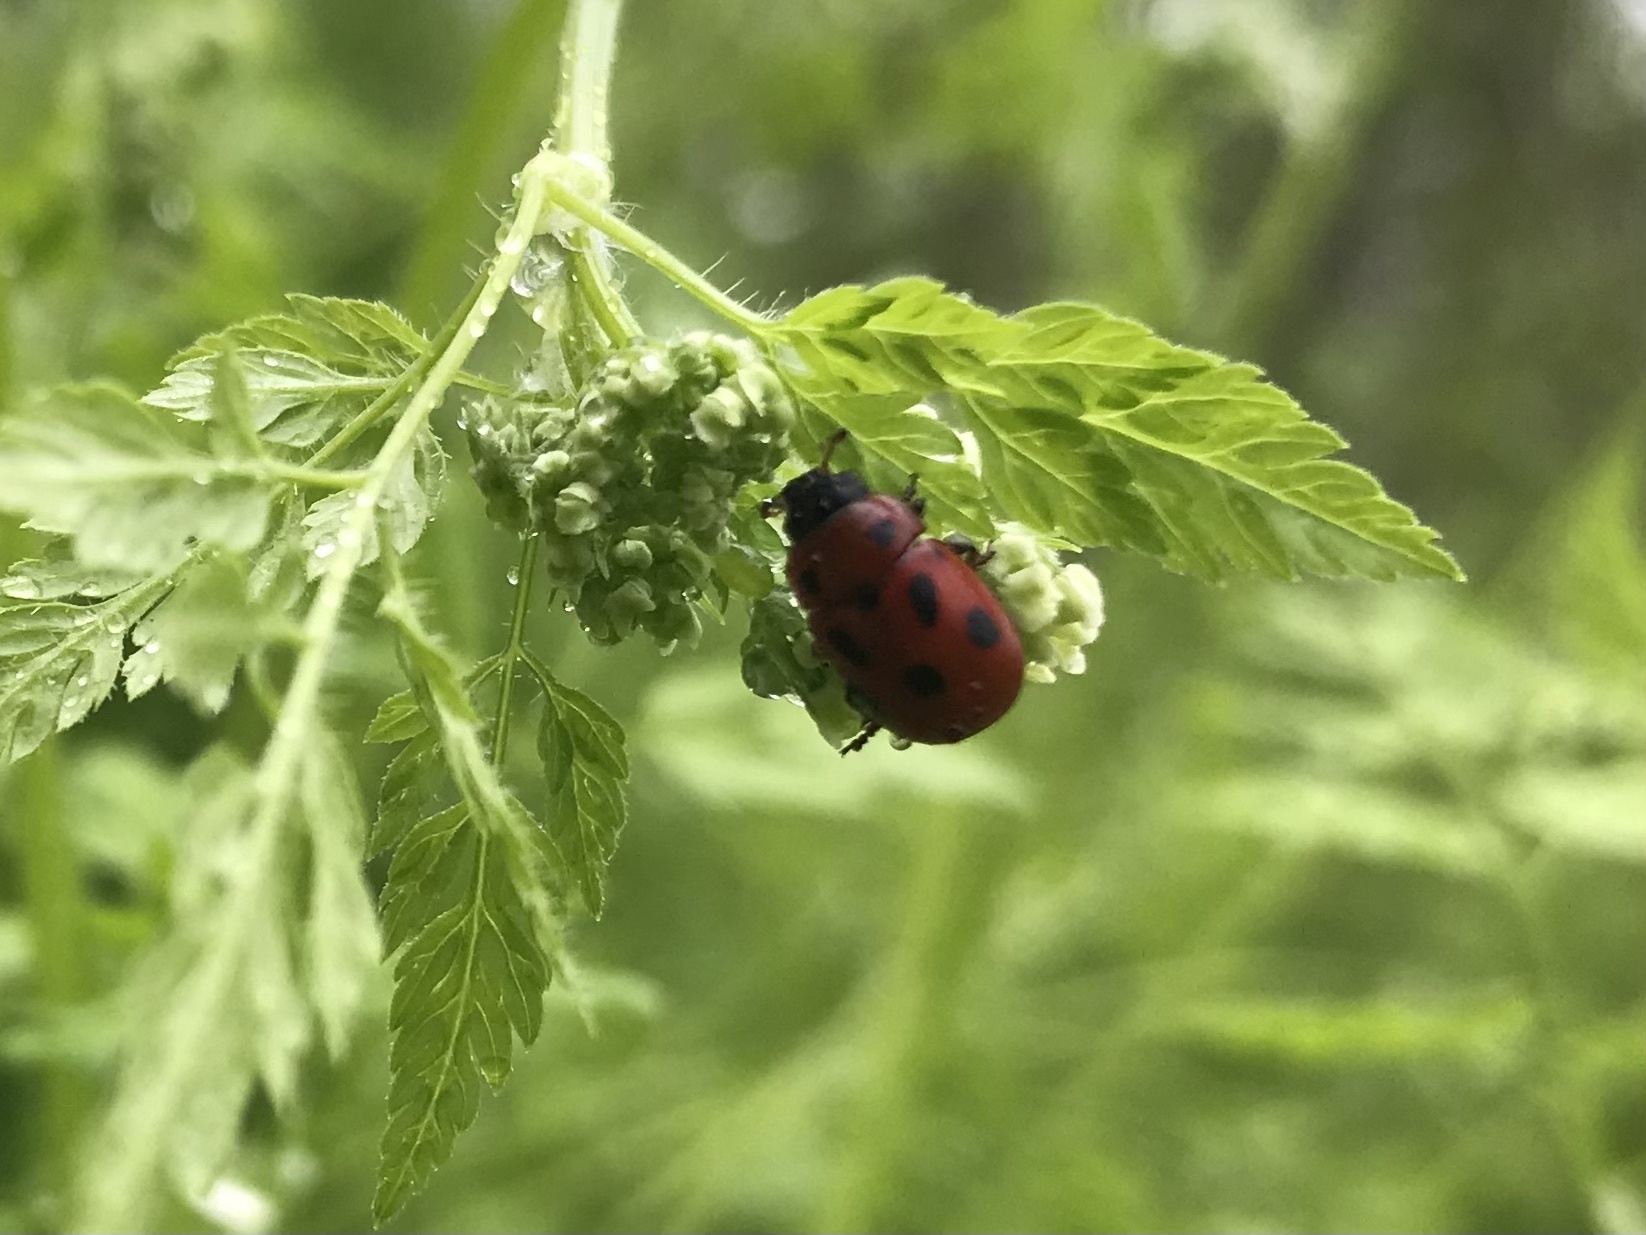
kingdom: Animalia
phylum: Arthropoda
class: Insecta
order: Coleoptera
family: Chrysomelidae
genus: Gonioctena
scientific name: Gonioctena fornicata
